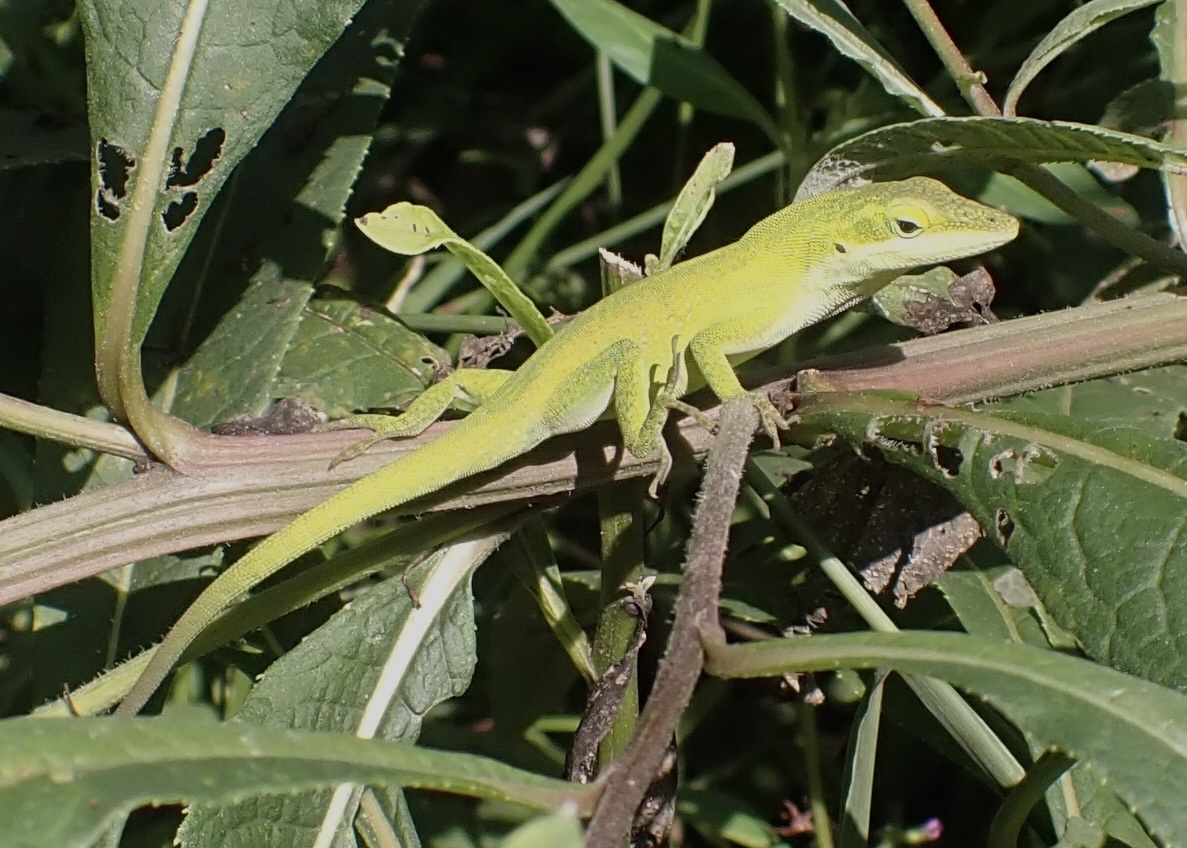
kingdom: Animalia
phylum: Chordata
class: Squamata
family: Dactyloidae
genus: Anolis
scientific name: Anolis carolinensis
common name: Green anole
